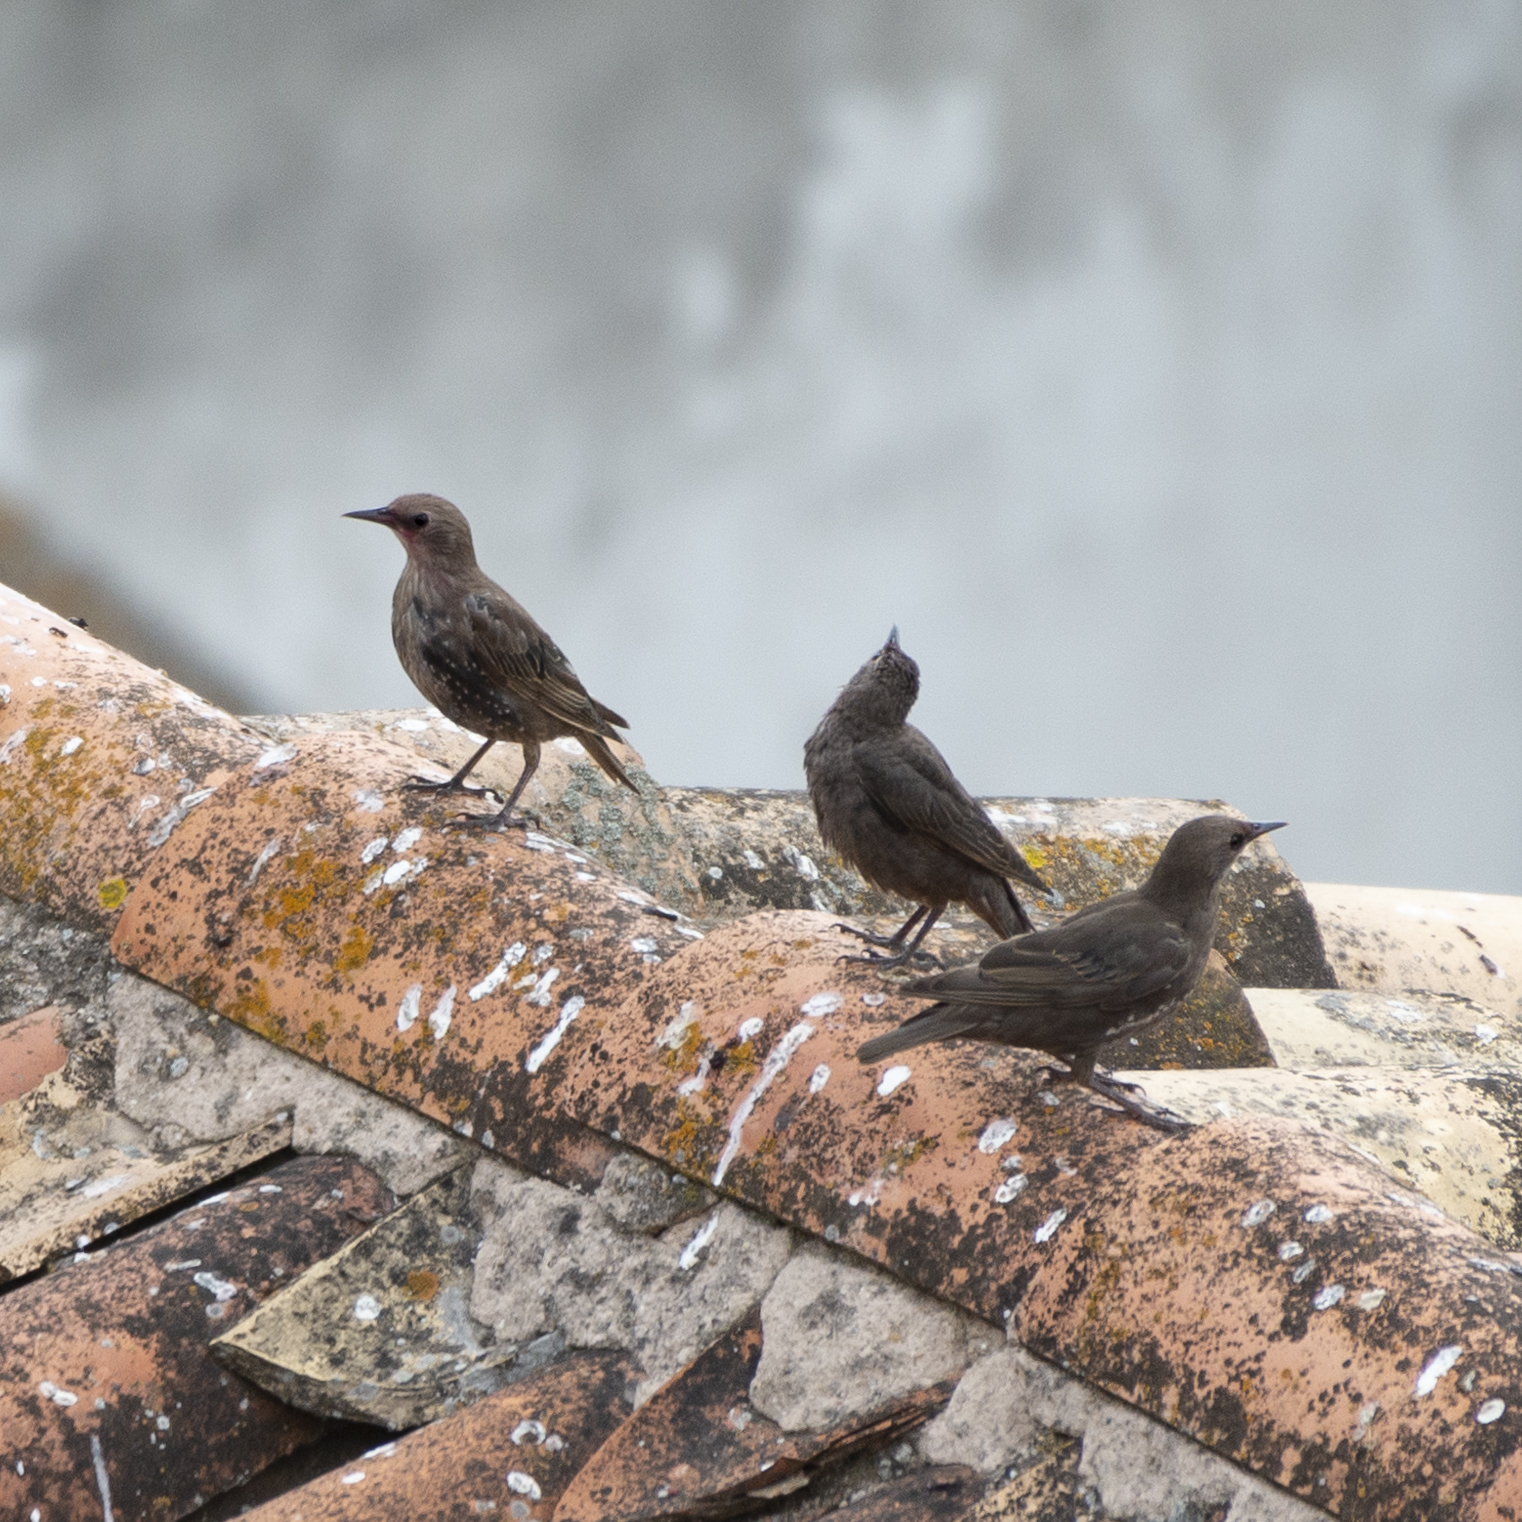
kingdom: Animalia
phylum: Chordata
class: Aves
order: Passeriformes
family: Sturnidae
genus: Sturnus
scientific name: Sturnus unicolor
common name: Spotless starling
